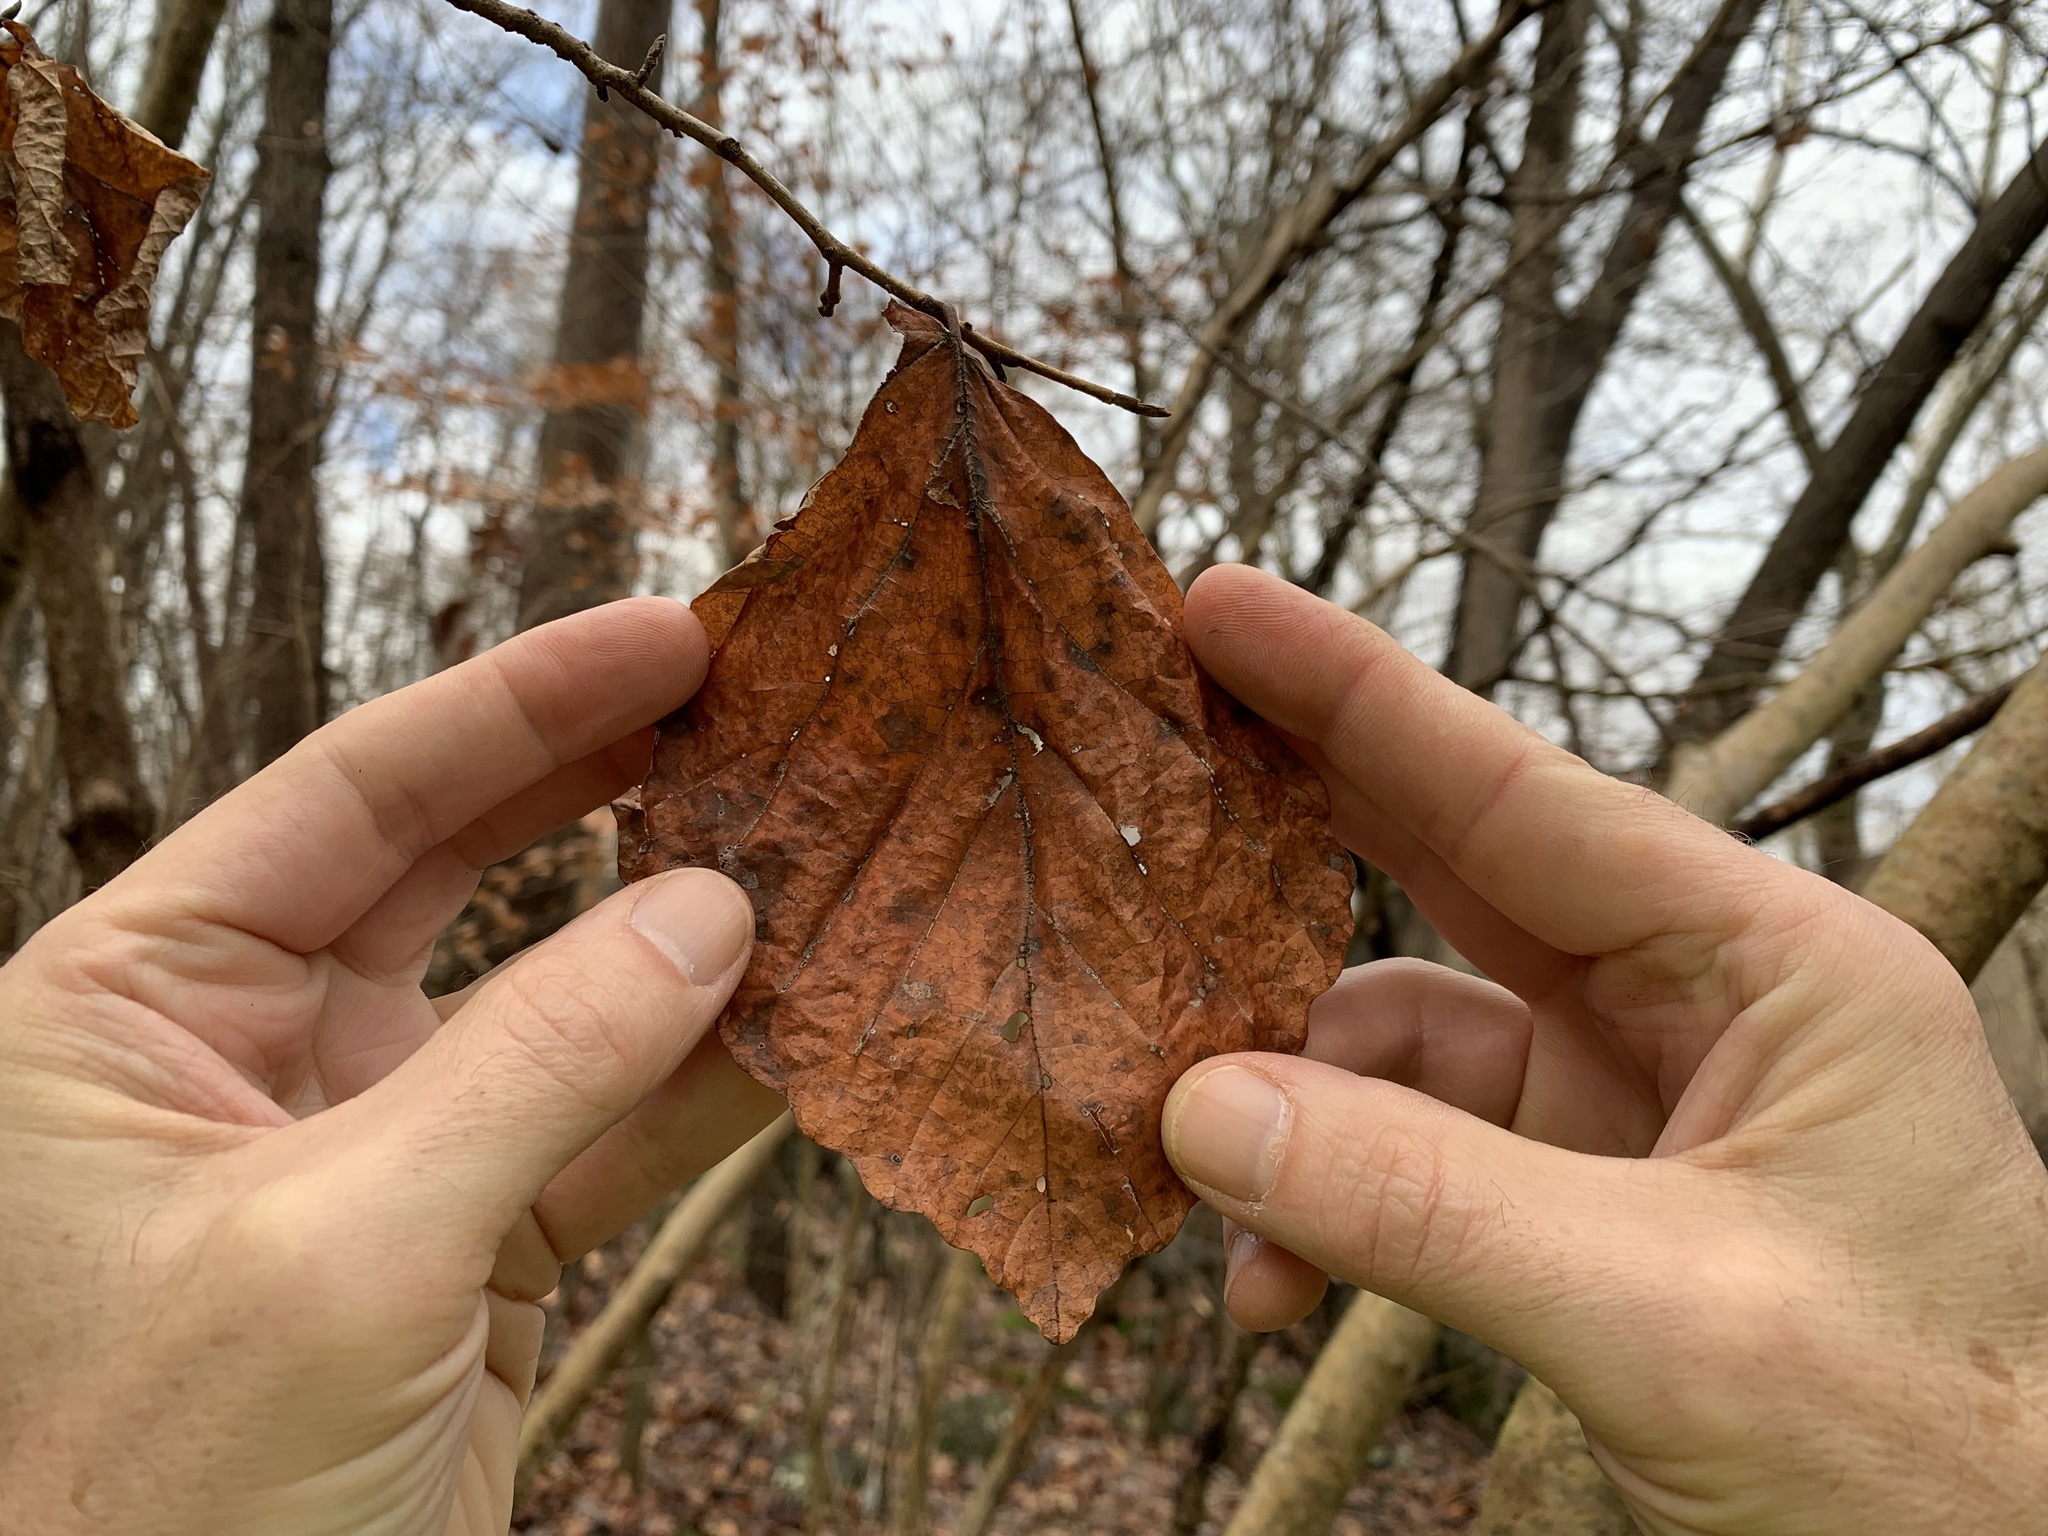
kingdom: Plantae
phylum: Tracheophyta
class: Magnoliopsida
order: Saxifragales
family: Hamamelidaceae
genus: Hamamelis
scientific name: Hamamelis virginiana
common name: Witch-hazel
